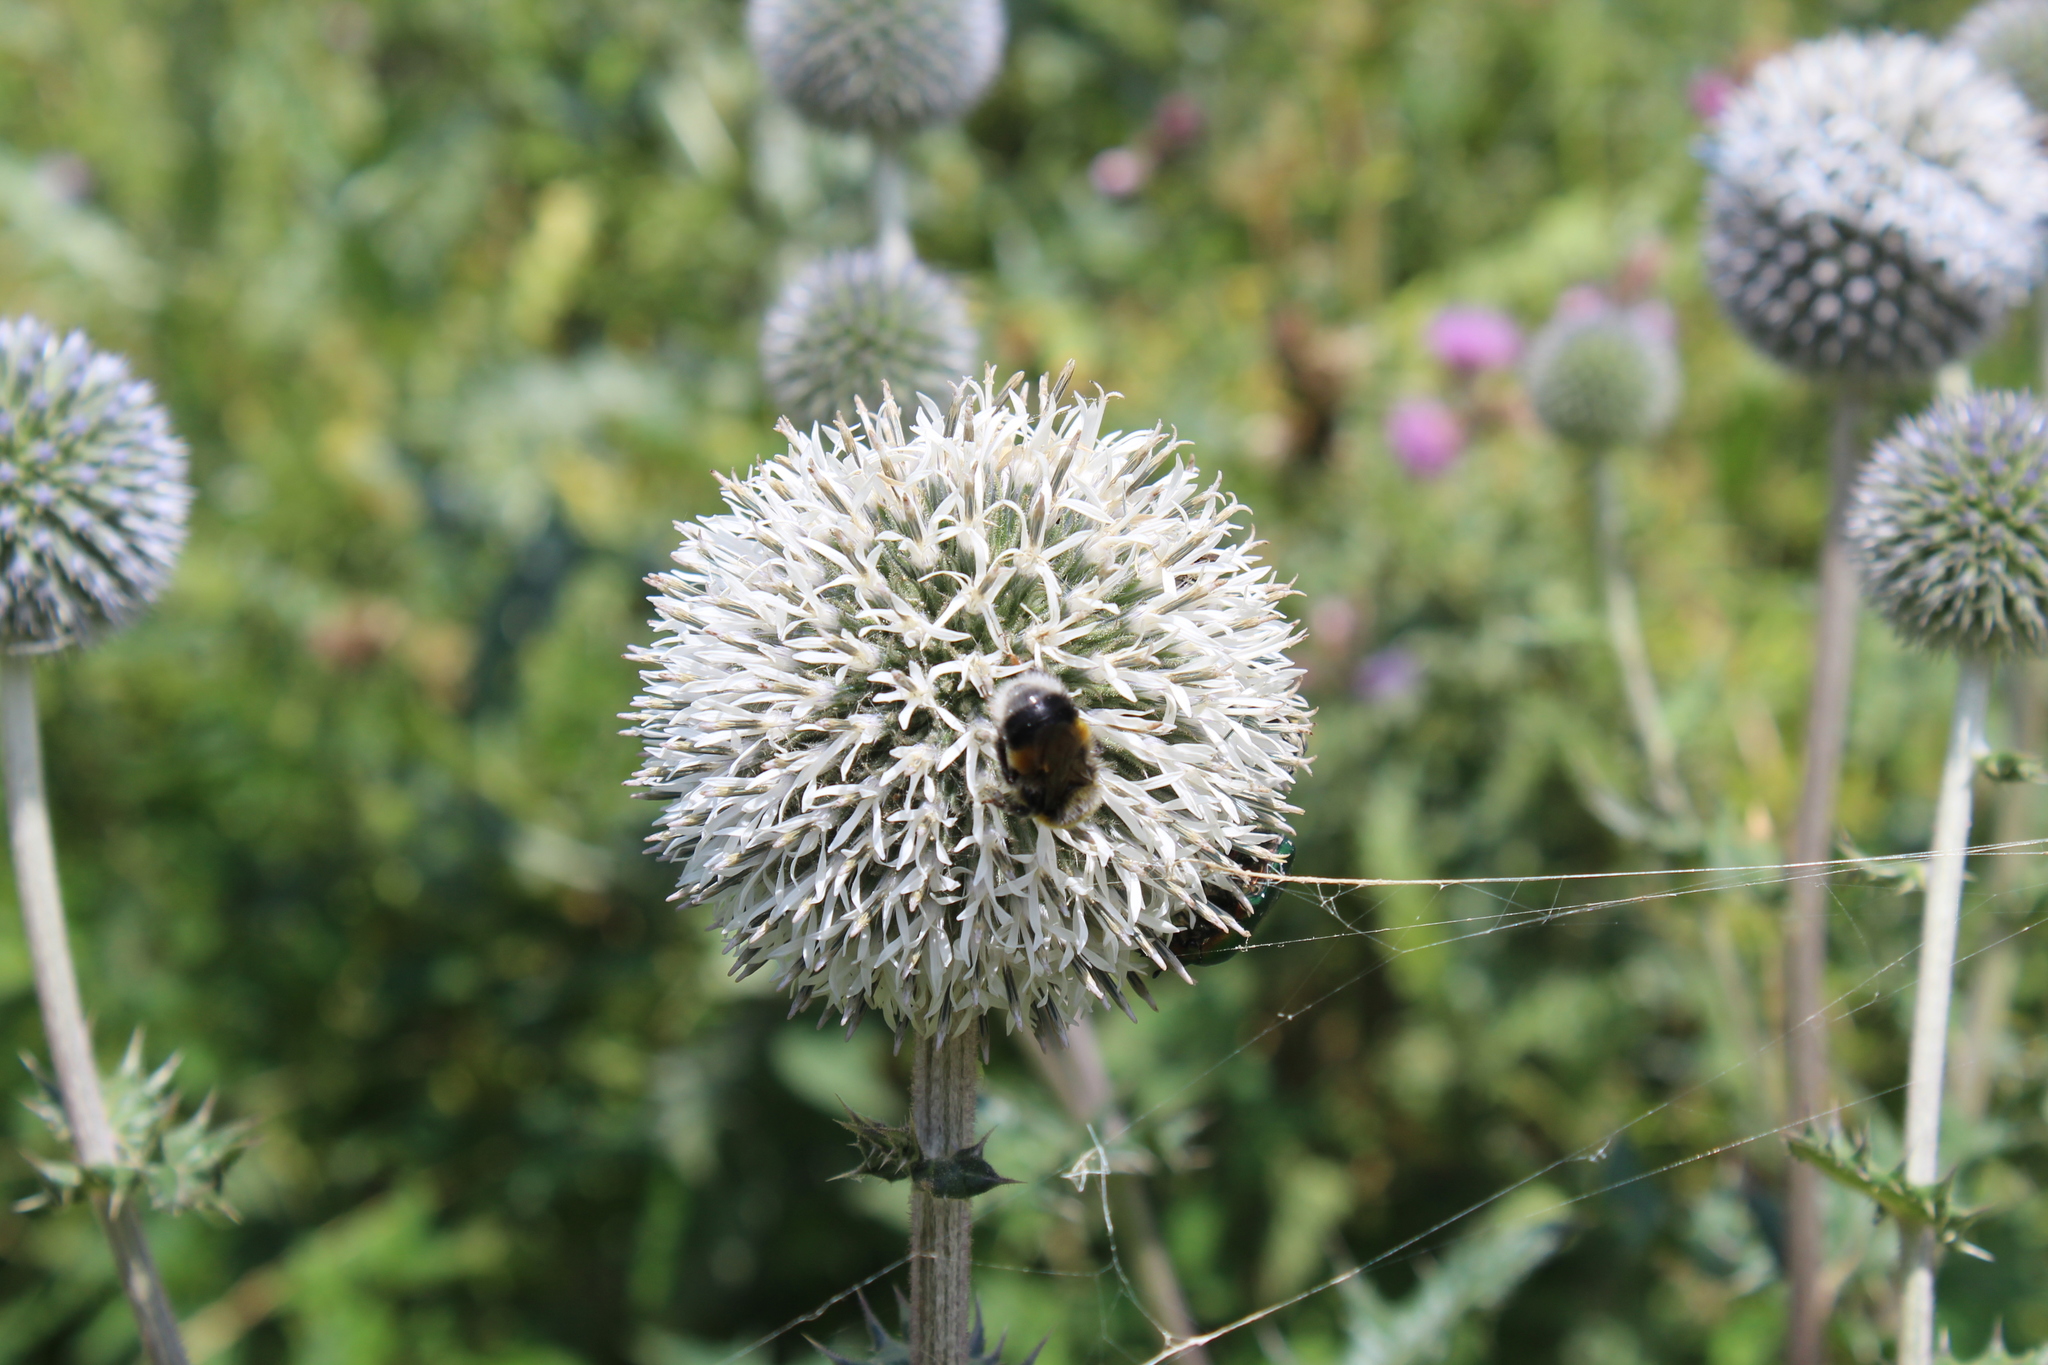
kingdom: Plantae
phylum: Tracheophyta
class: Magnoliopsida
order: Asterales
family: Asteraceae
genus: Echinops
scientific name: Echinops sphaerocephalus
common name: Glandular globe-thistle
